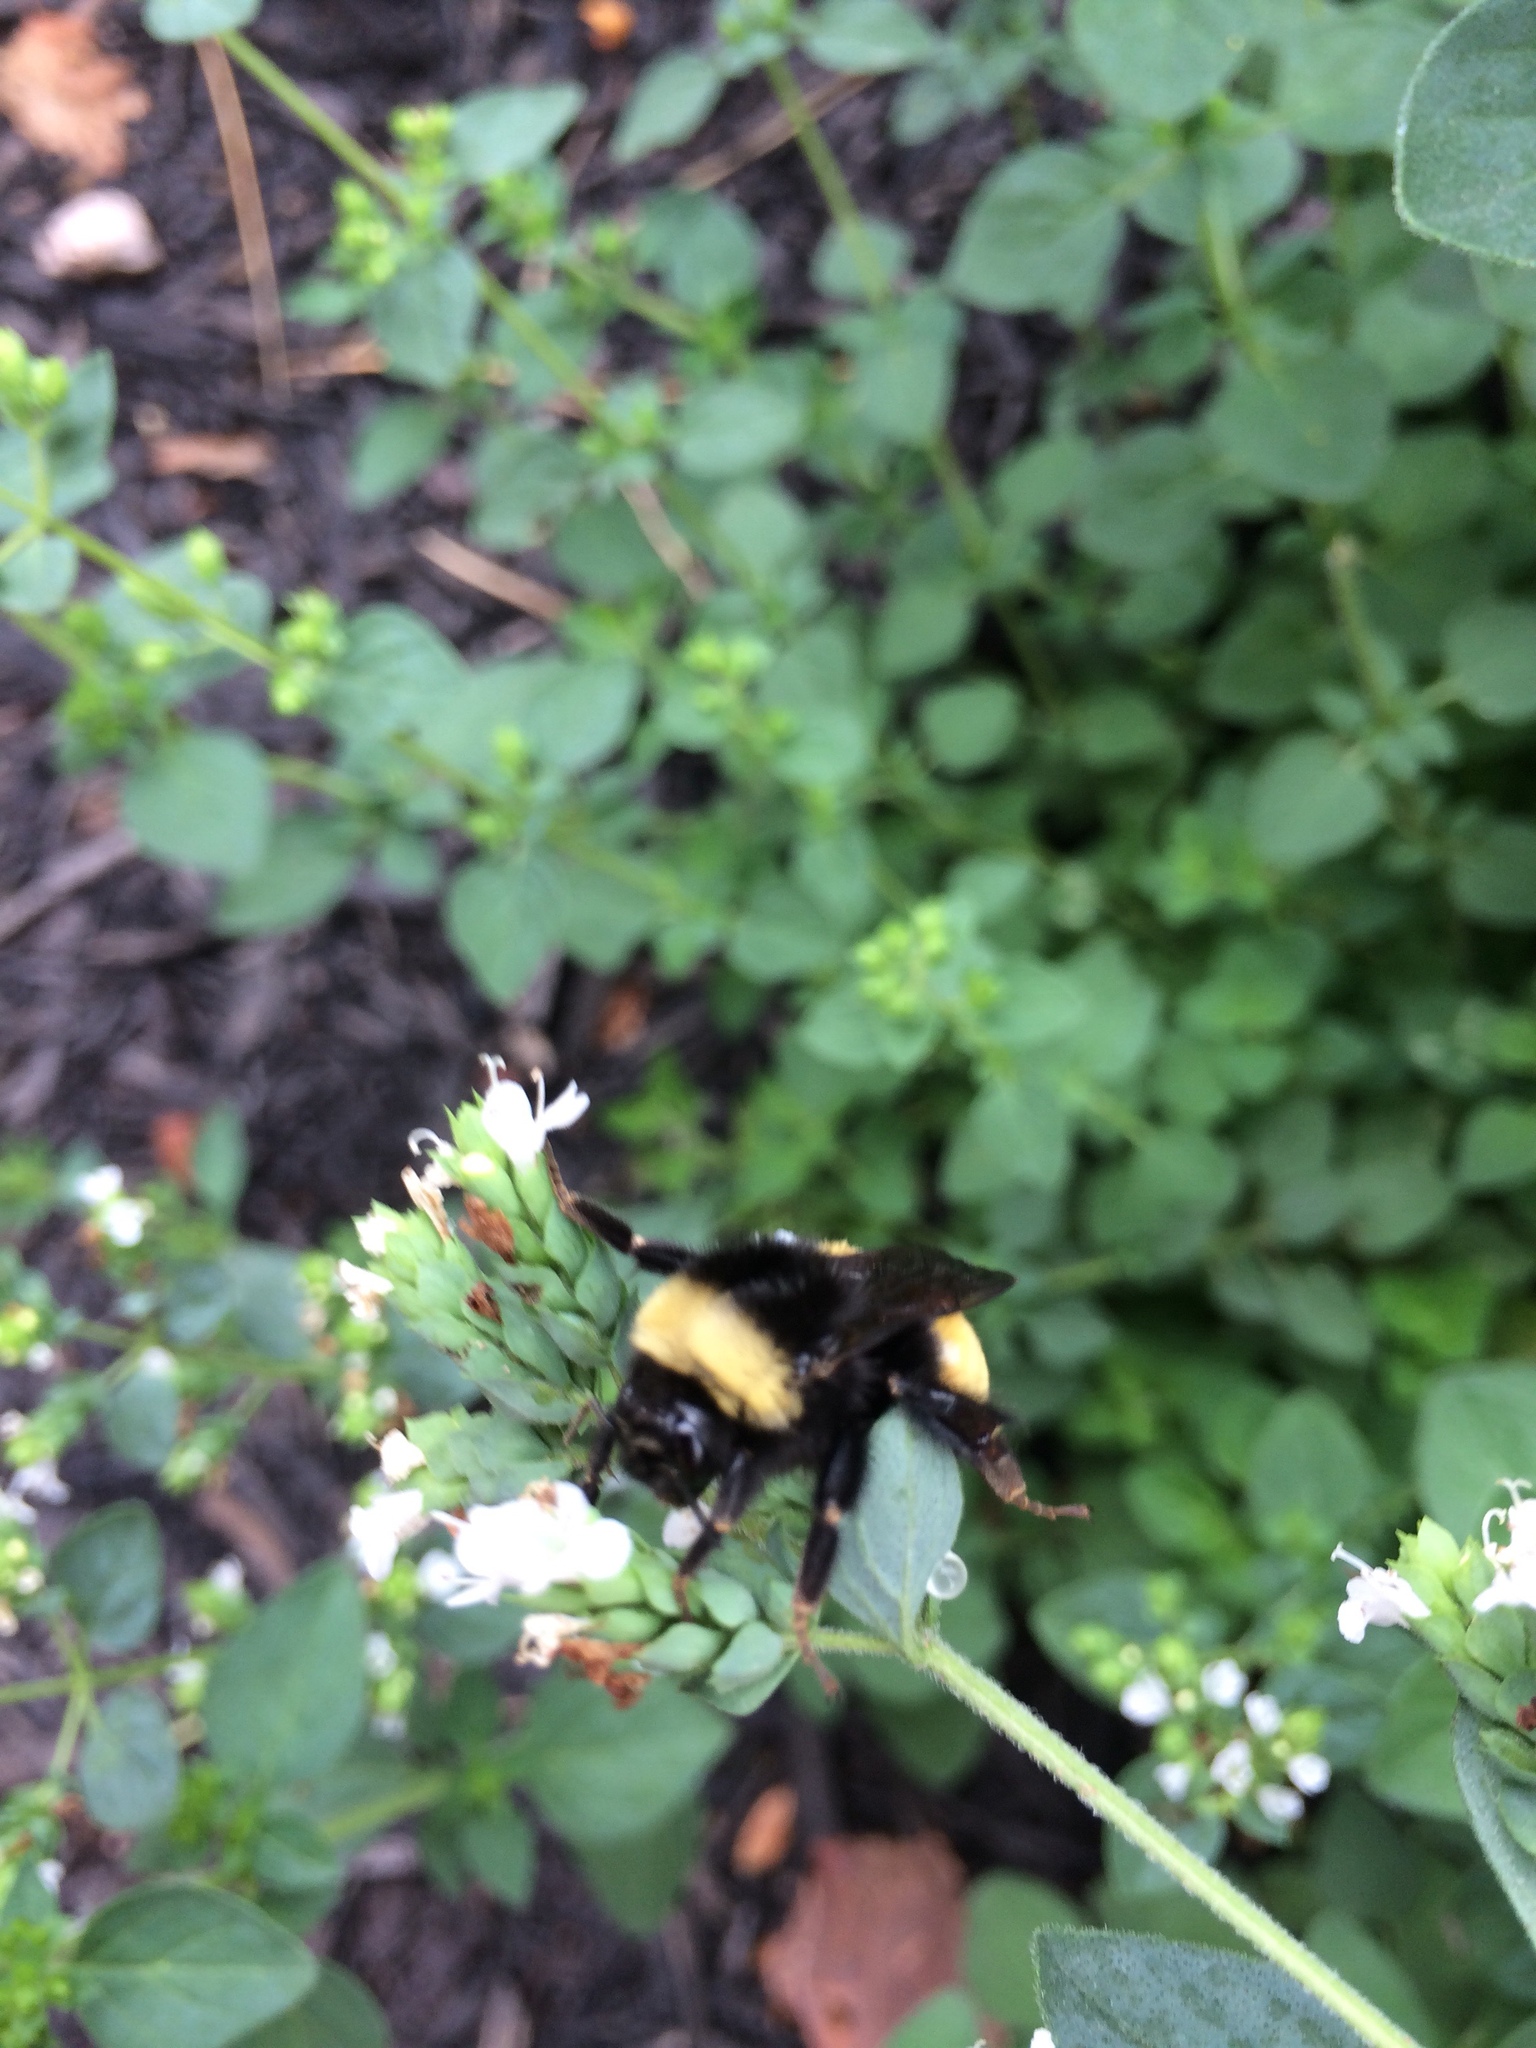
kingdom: Animalia
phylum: Arthropoda
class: Insecta
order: Hymenoptera
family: Apidae
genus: Bombus
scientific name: Bombus terricola
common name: Yellow-banded bumble bee
